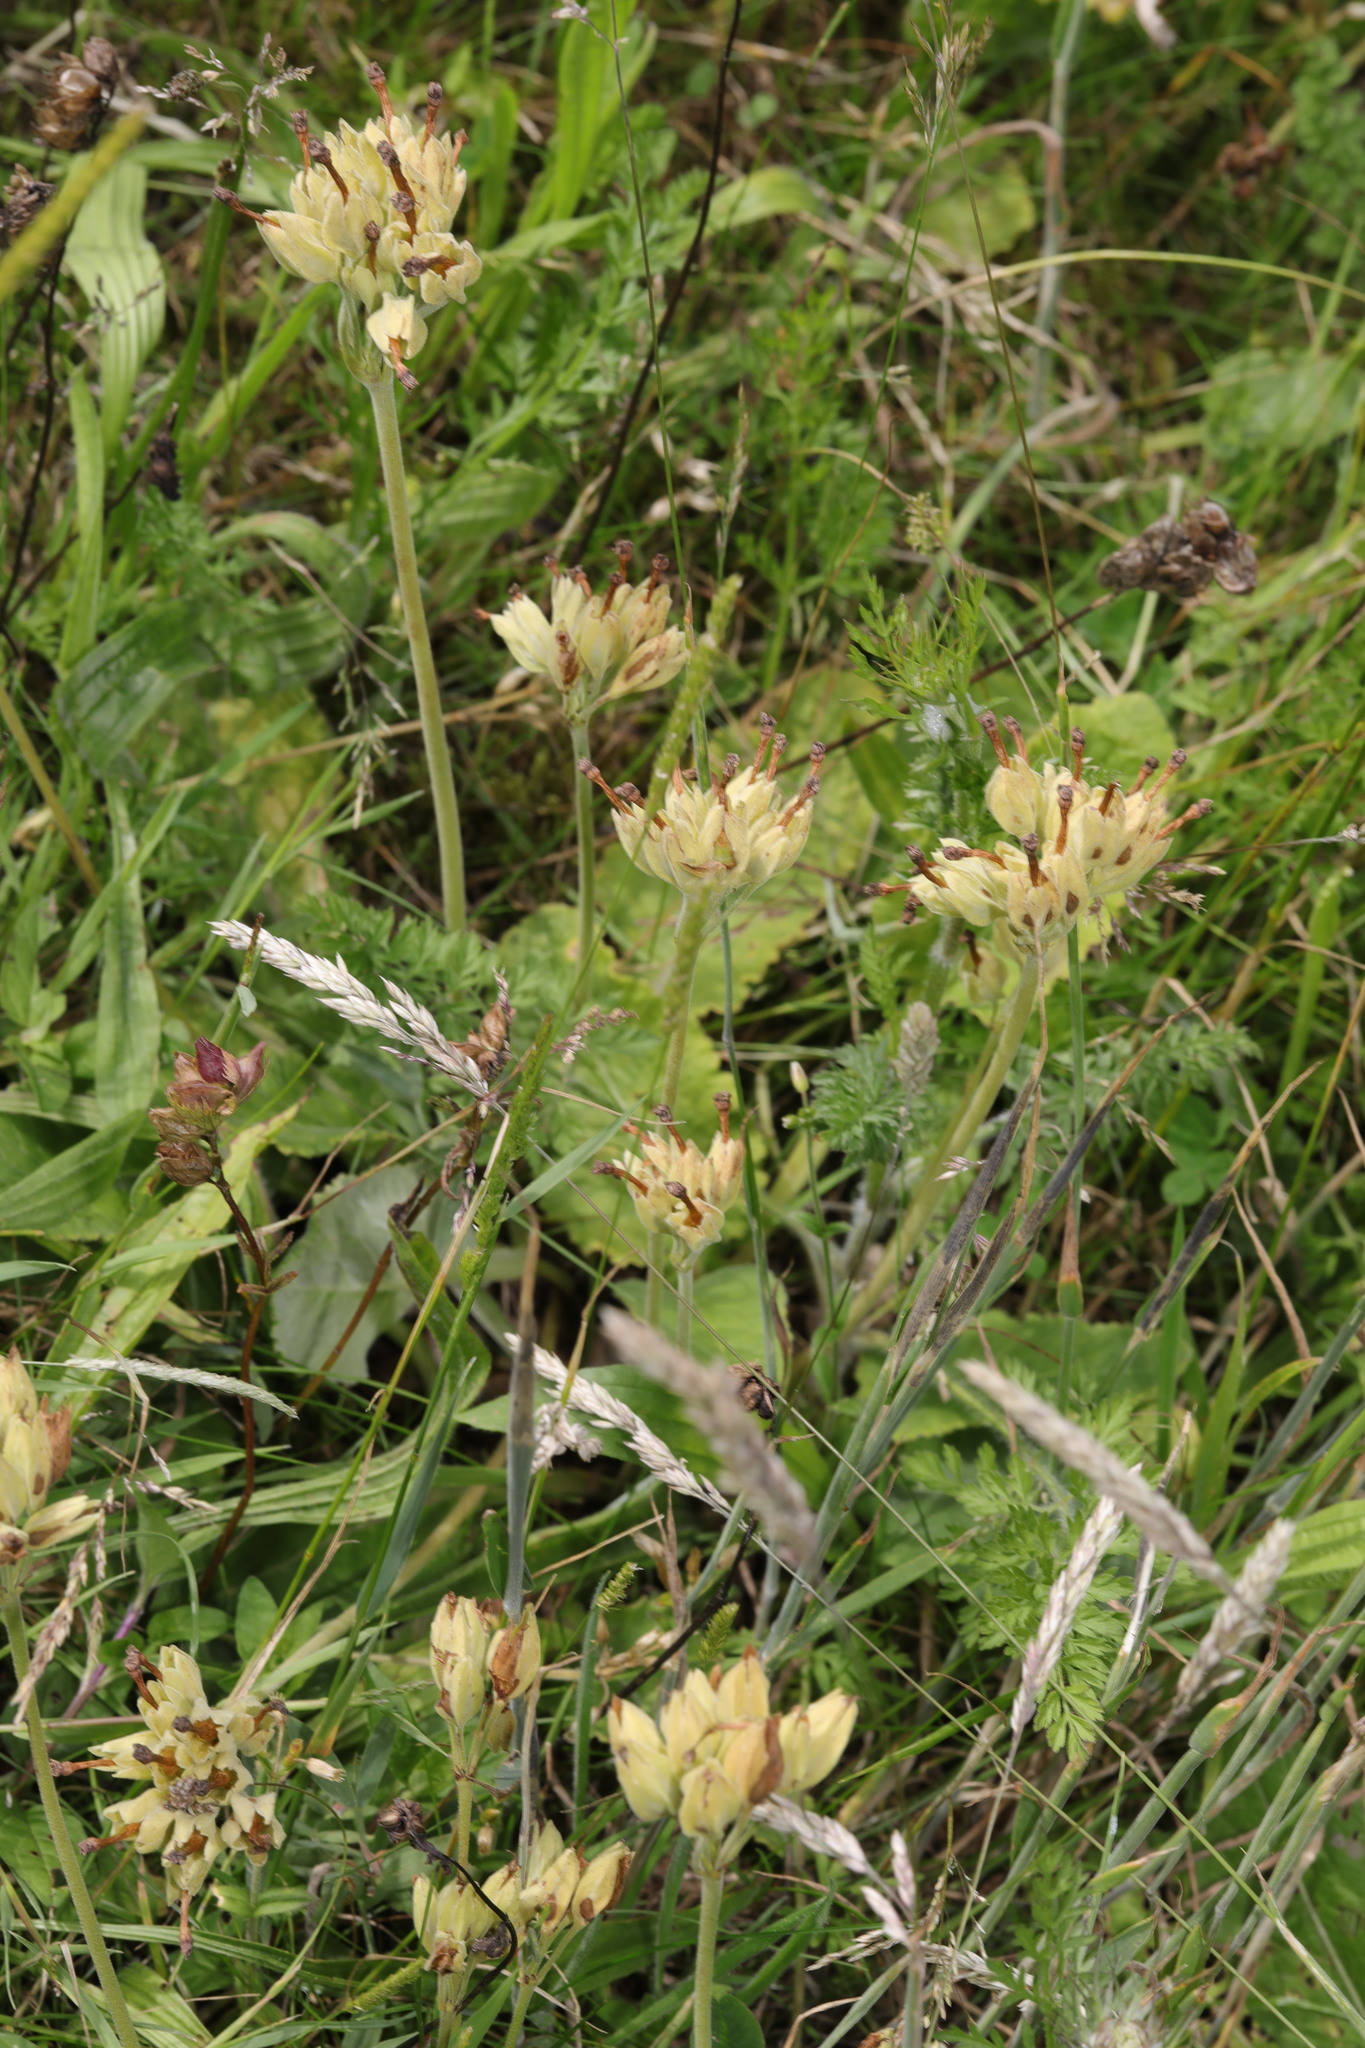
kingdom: Plantae
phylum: Tracheophyta
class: Magnoliopsida
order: Ericales
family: Primulaceae
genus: Primula
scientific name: Primula veris
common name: Cowslip
